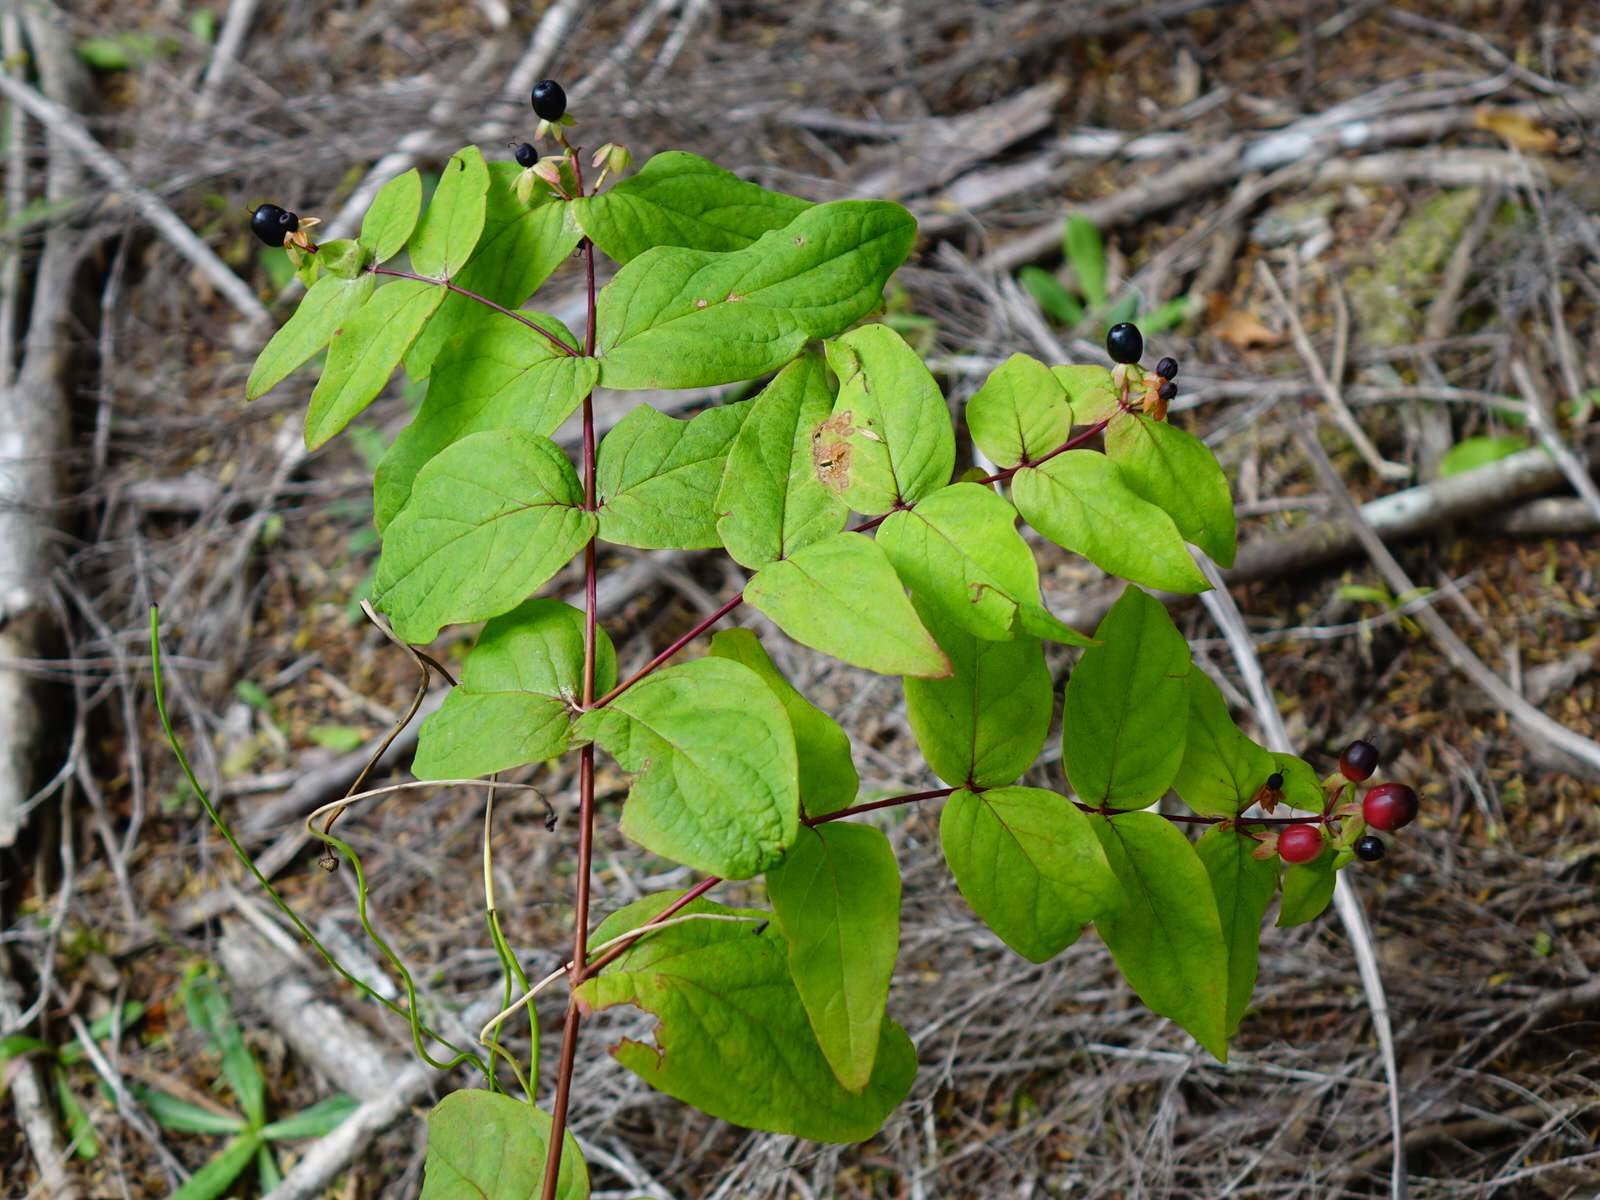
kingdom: Plantae
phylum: Tracheophyta
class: Magnoliopsida
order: Malpighiales
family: Hypericaceae
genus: Hypericum
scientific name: Hypericum androsaemum
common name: Sweet-amber
